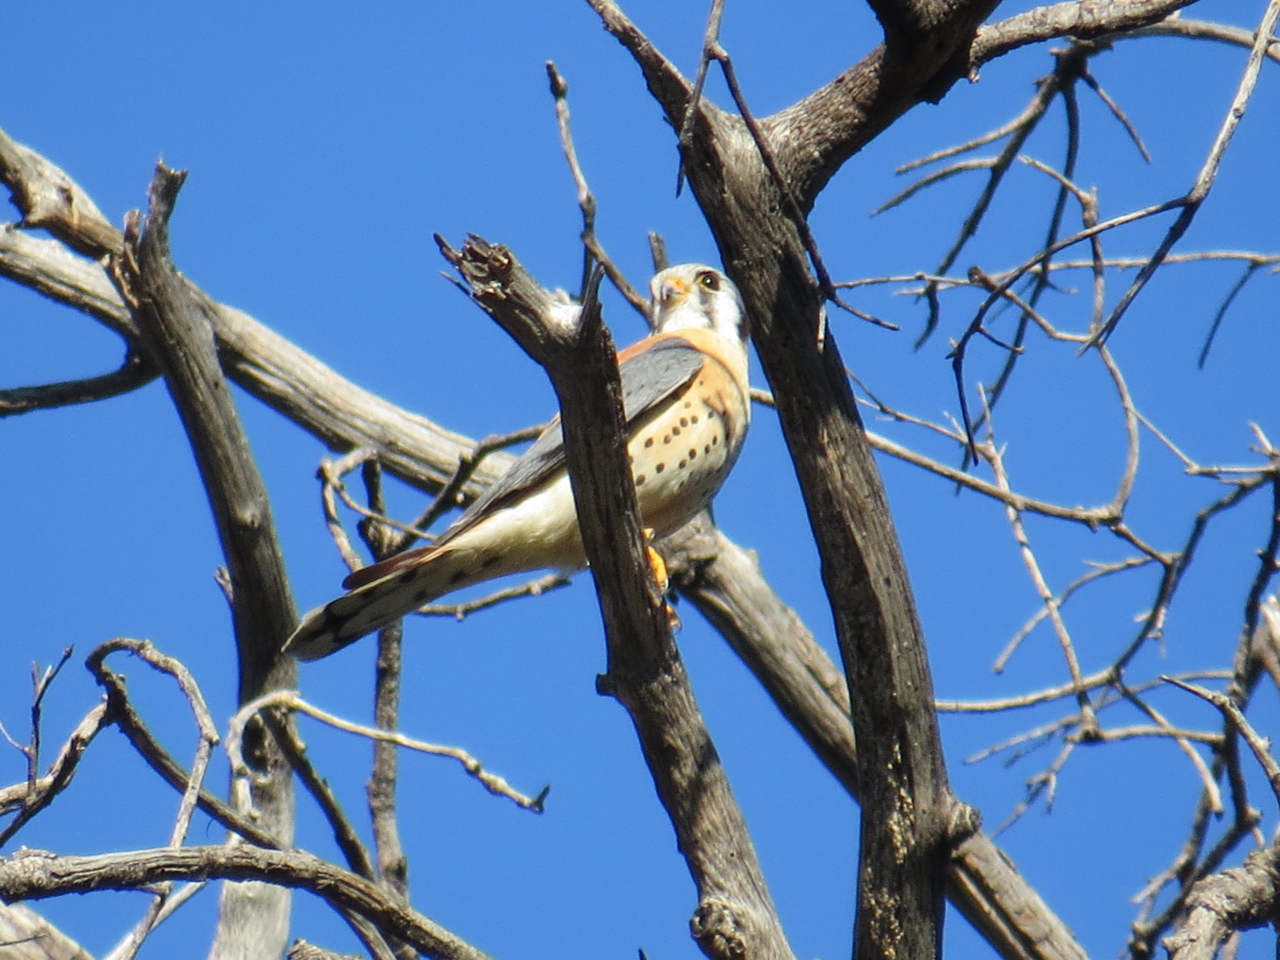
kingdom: Animalia
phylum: Chordata
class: Aves
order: Falconiformes
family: Falconidae
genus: Falco
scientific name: Falco sparverius
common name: American kestrel
